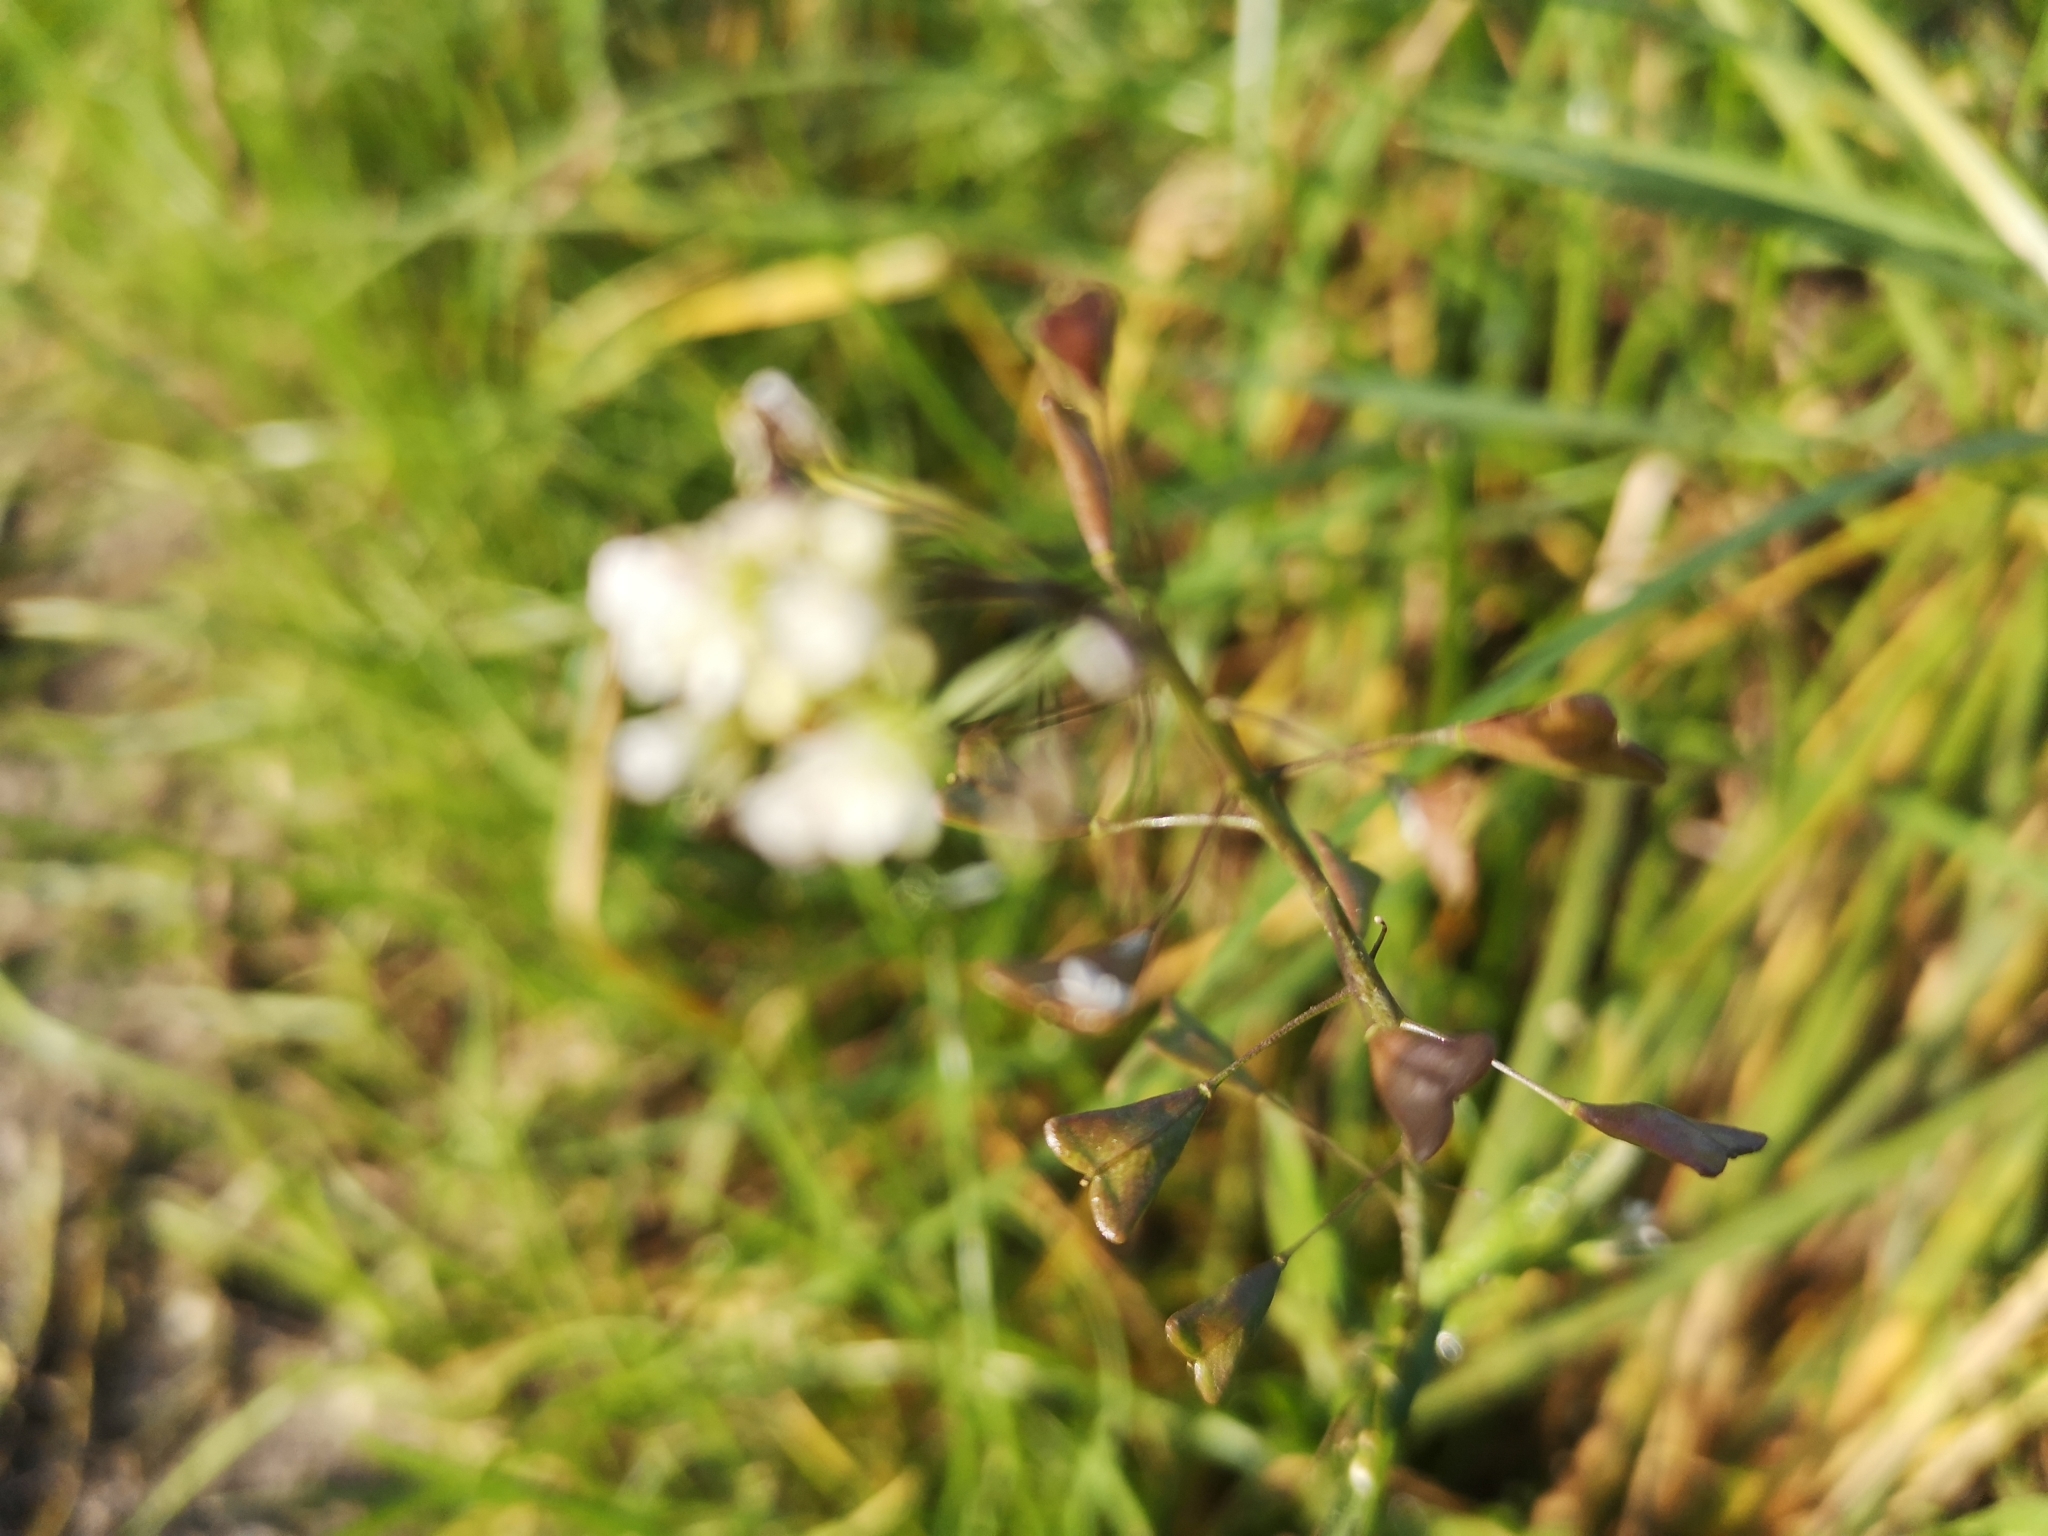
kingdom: Plantae
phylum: Tracheophyta
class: Magnoliopsida
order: Brassicales
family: Brassicaceae
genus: Capsella
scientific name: Capsella bursa-pastoris
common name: Shepherd's purse
